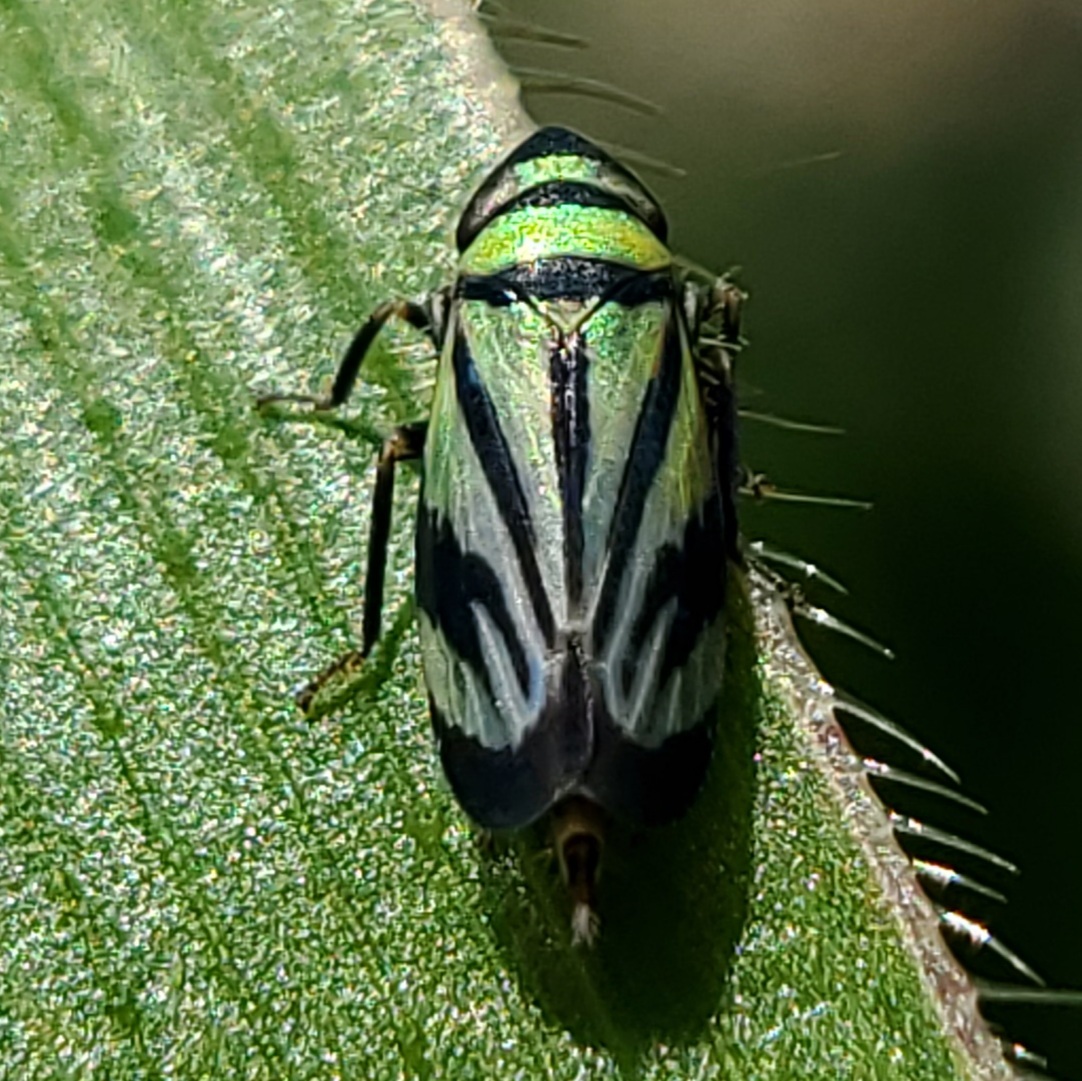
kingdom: Animalia
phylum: Arthropoda
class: Insecta
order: Hemiptera
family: Cicadellidae
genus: Stirellus
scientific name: Stirellus bicolor
